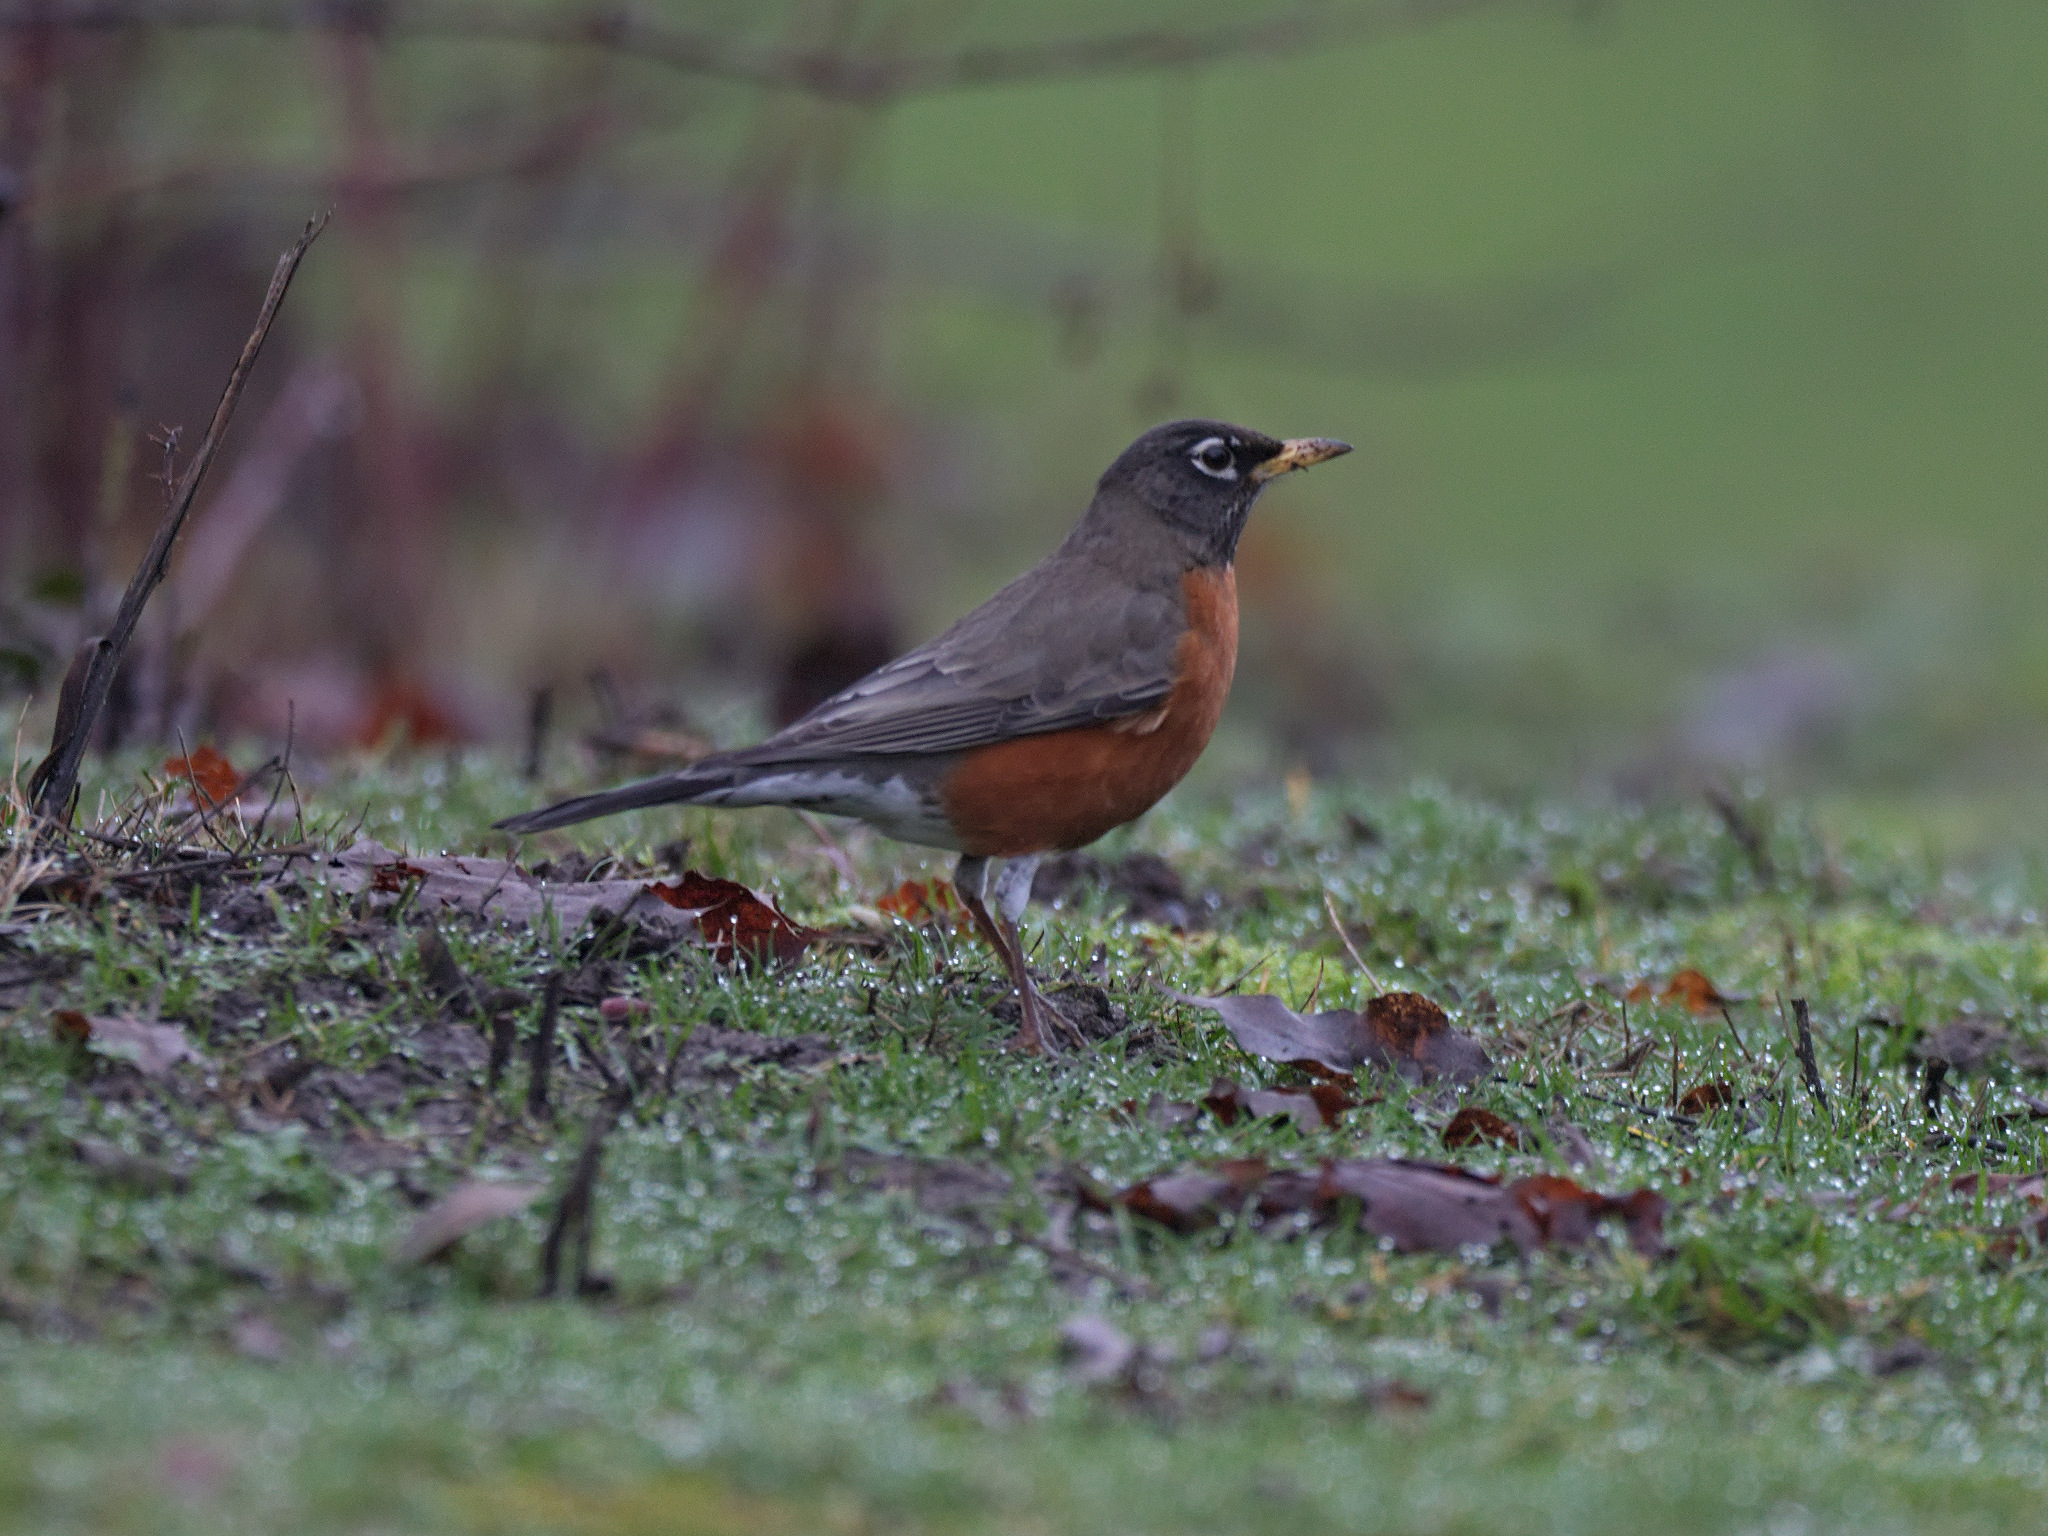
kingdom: Animalia
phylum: Chordata
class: Aves
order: Passeriformes
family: Turdidae
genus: Turdus
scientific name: Turdus migratorius
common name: American robin
